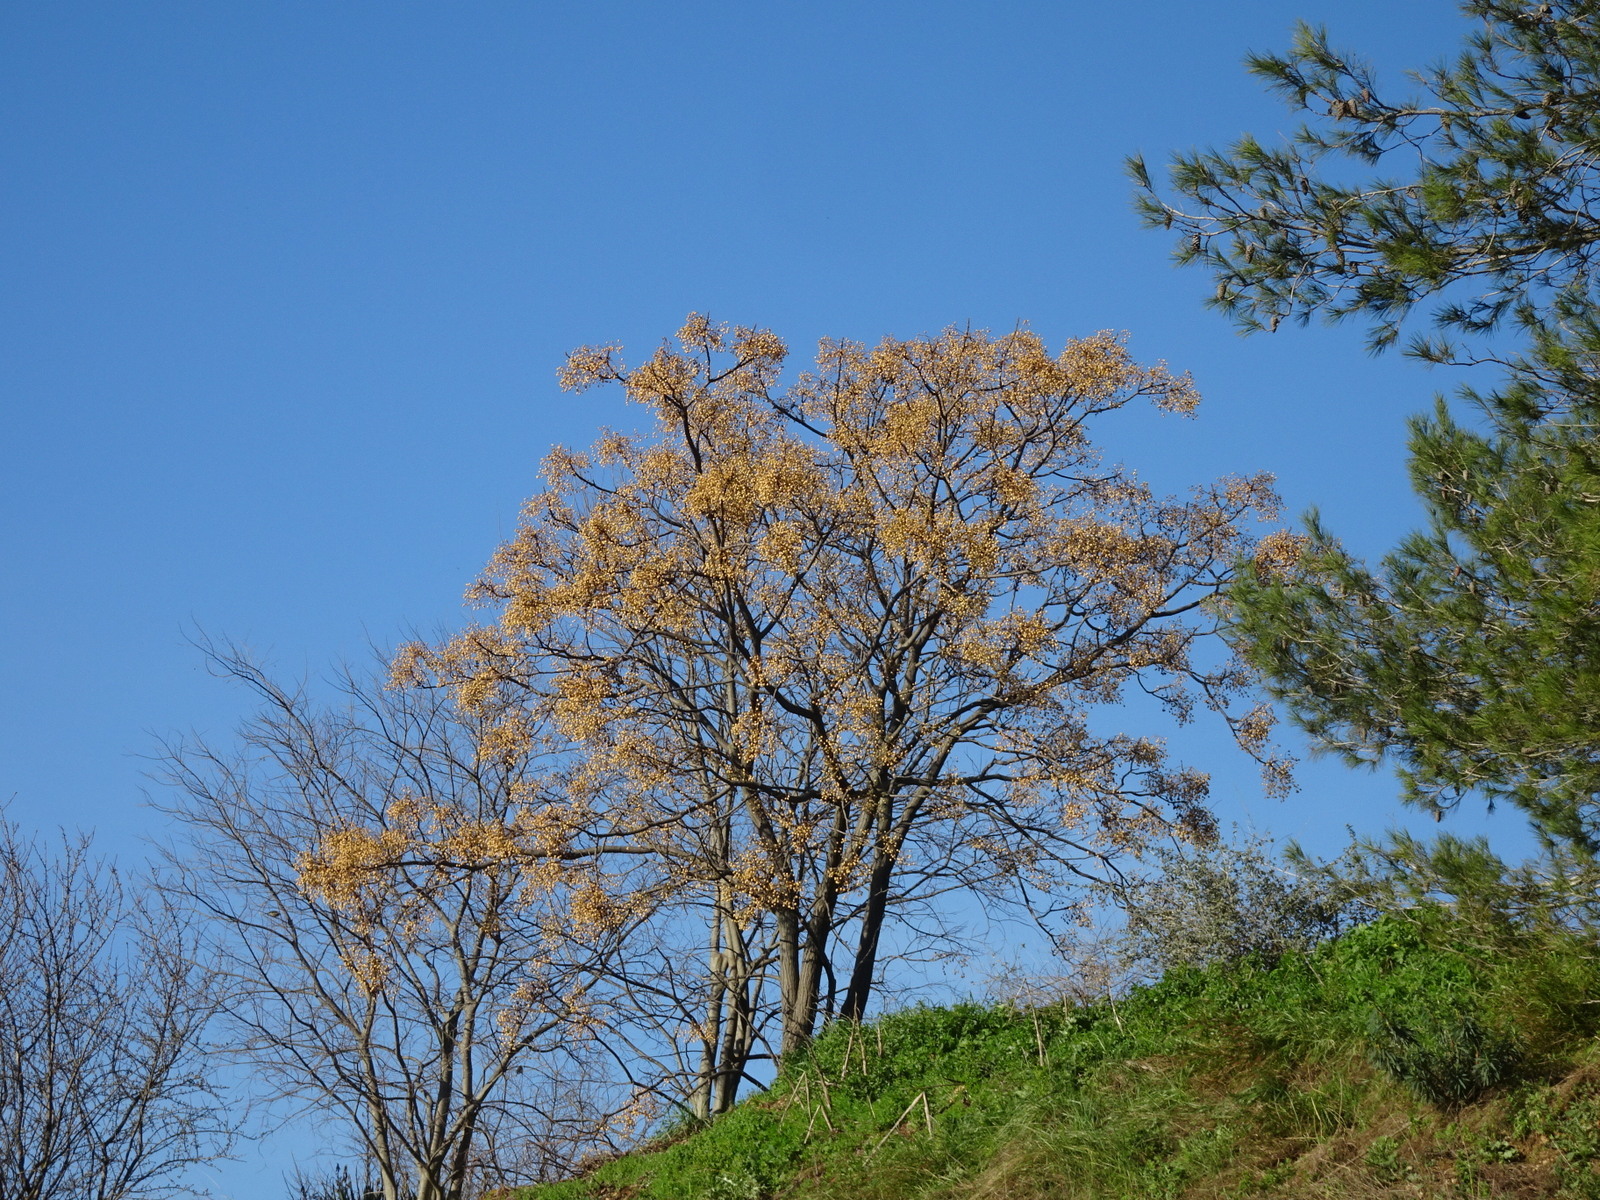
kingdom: Plantae
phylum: Tracheophyta
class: Magnoliopsida
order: Sapindales
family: Meliaceae
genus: Melia
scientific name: Melia azedarach
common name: Chinaberrytree
